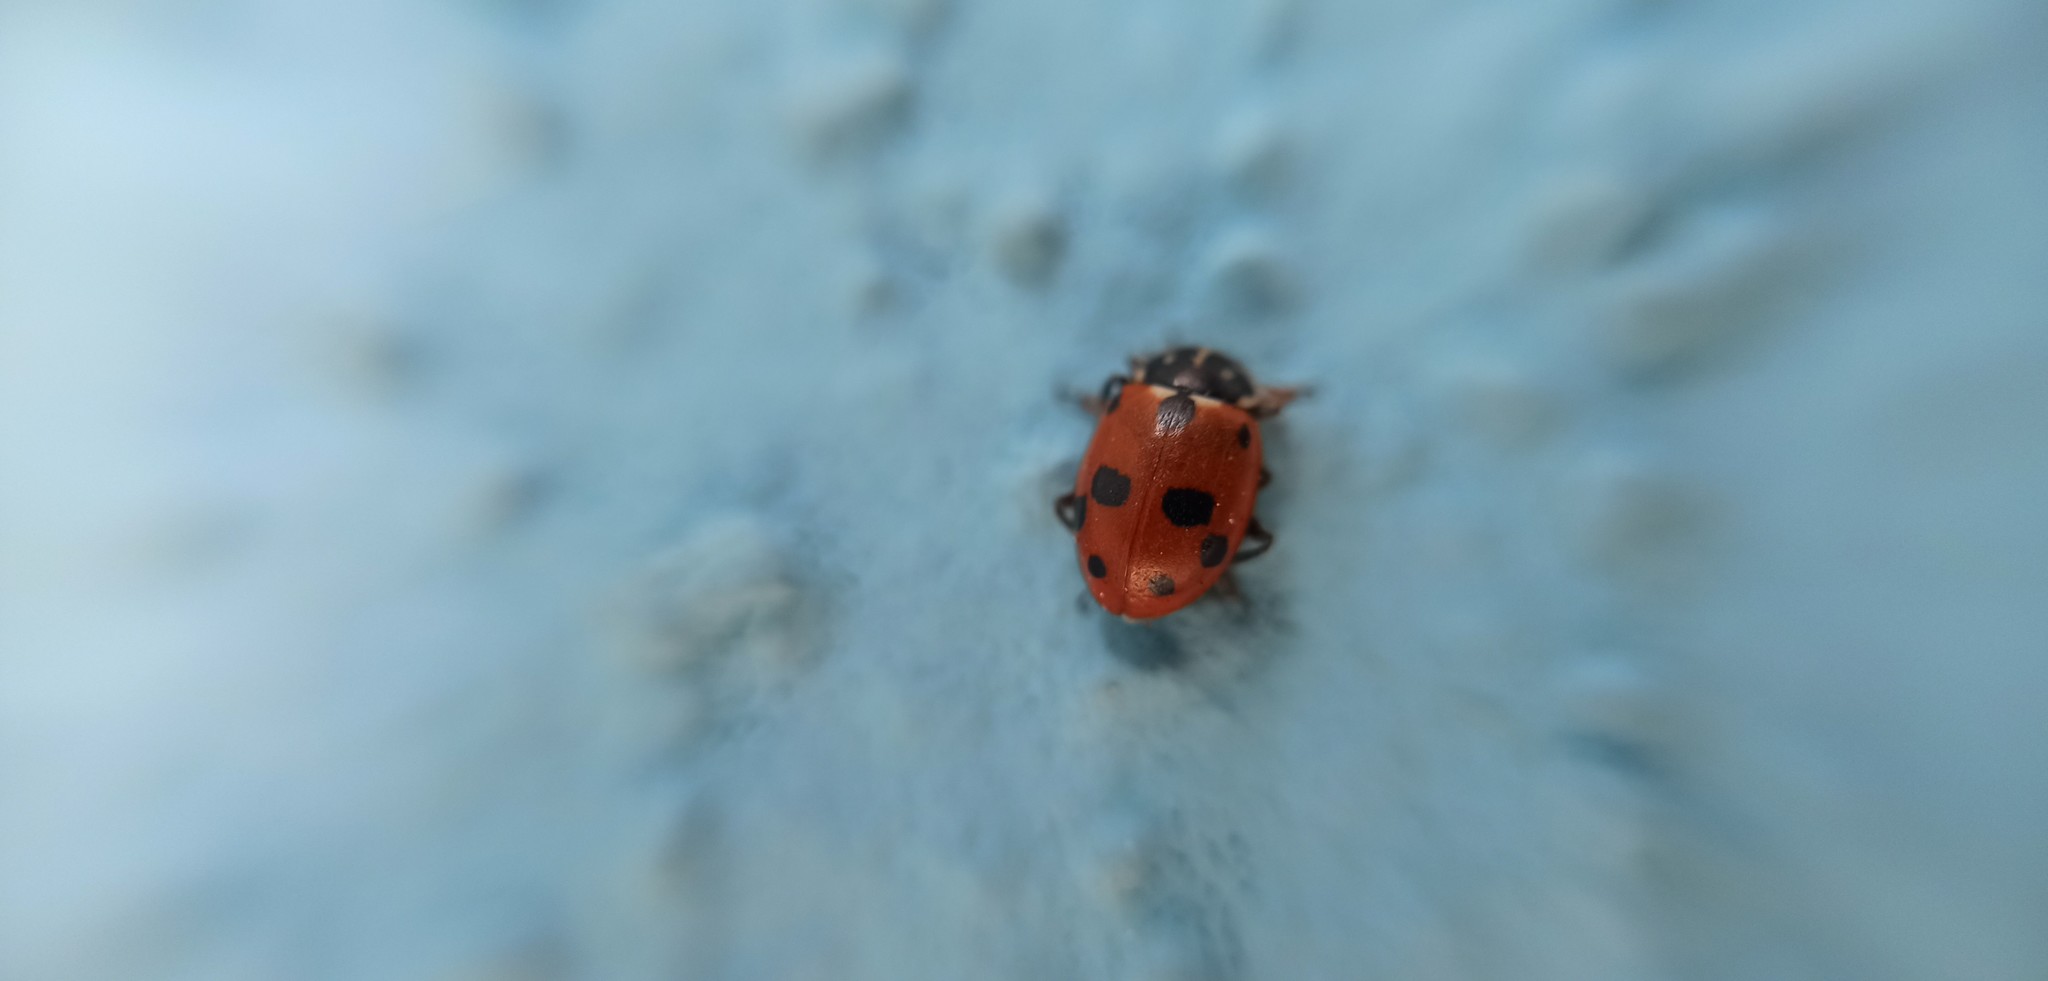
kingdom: Animalia
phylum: Arthropoda
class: Insecta
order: Coleoptera
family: Coccinellidae
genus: Hippodamia
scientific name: Hippodamia variegata
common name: Ladybird beetle
